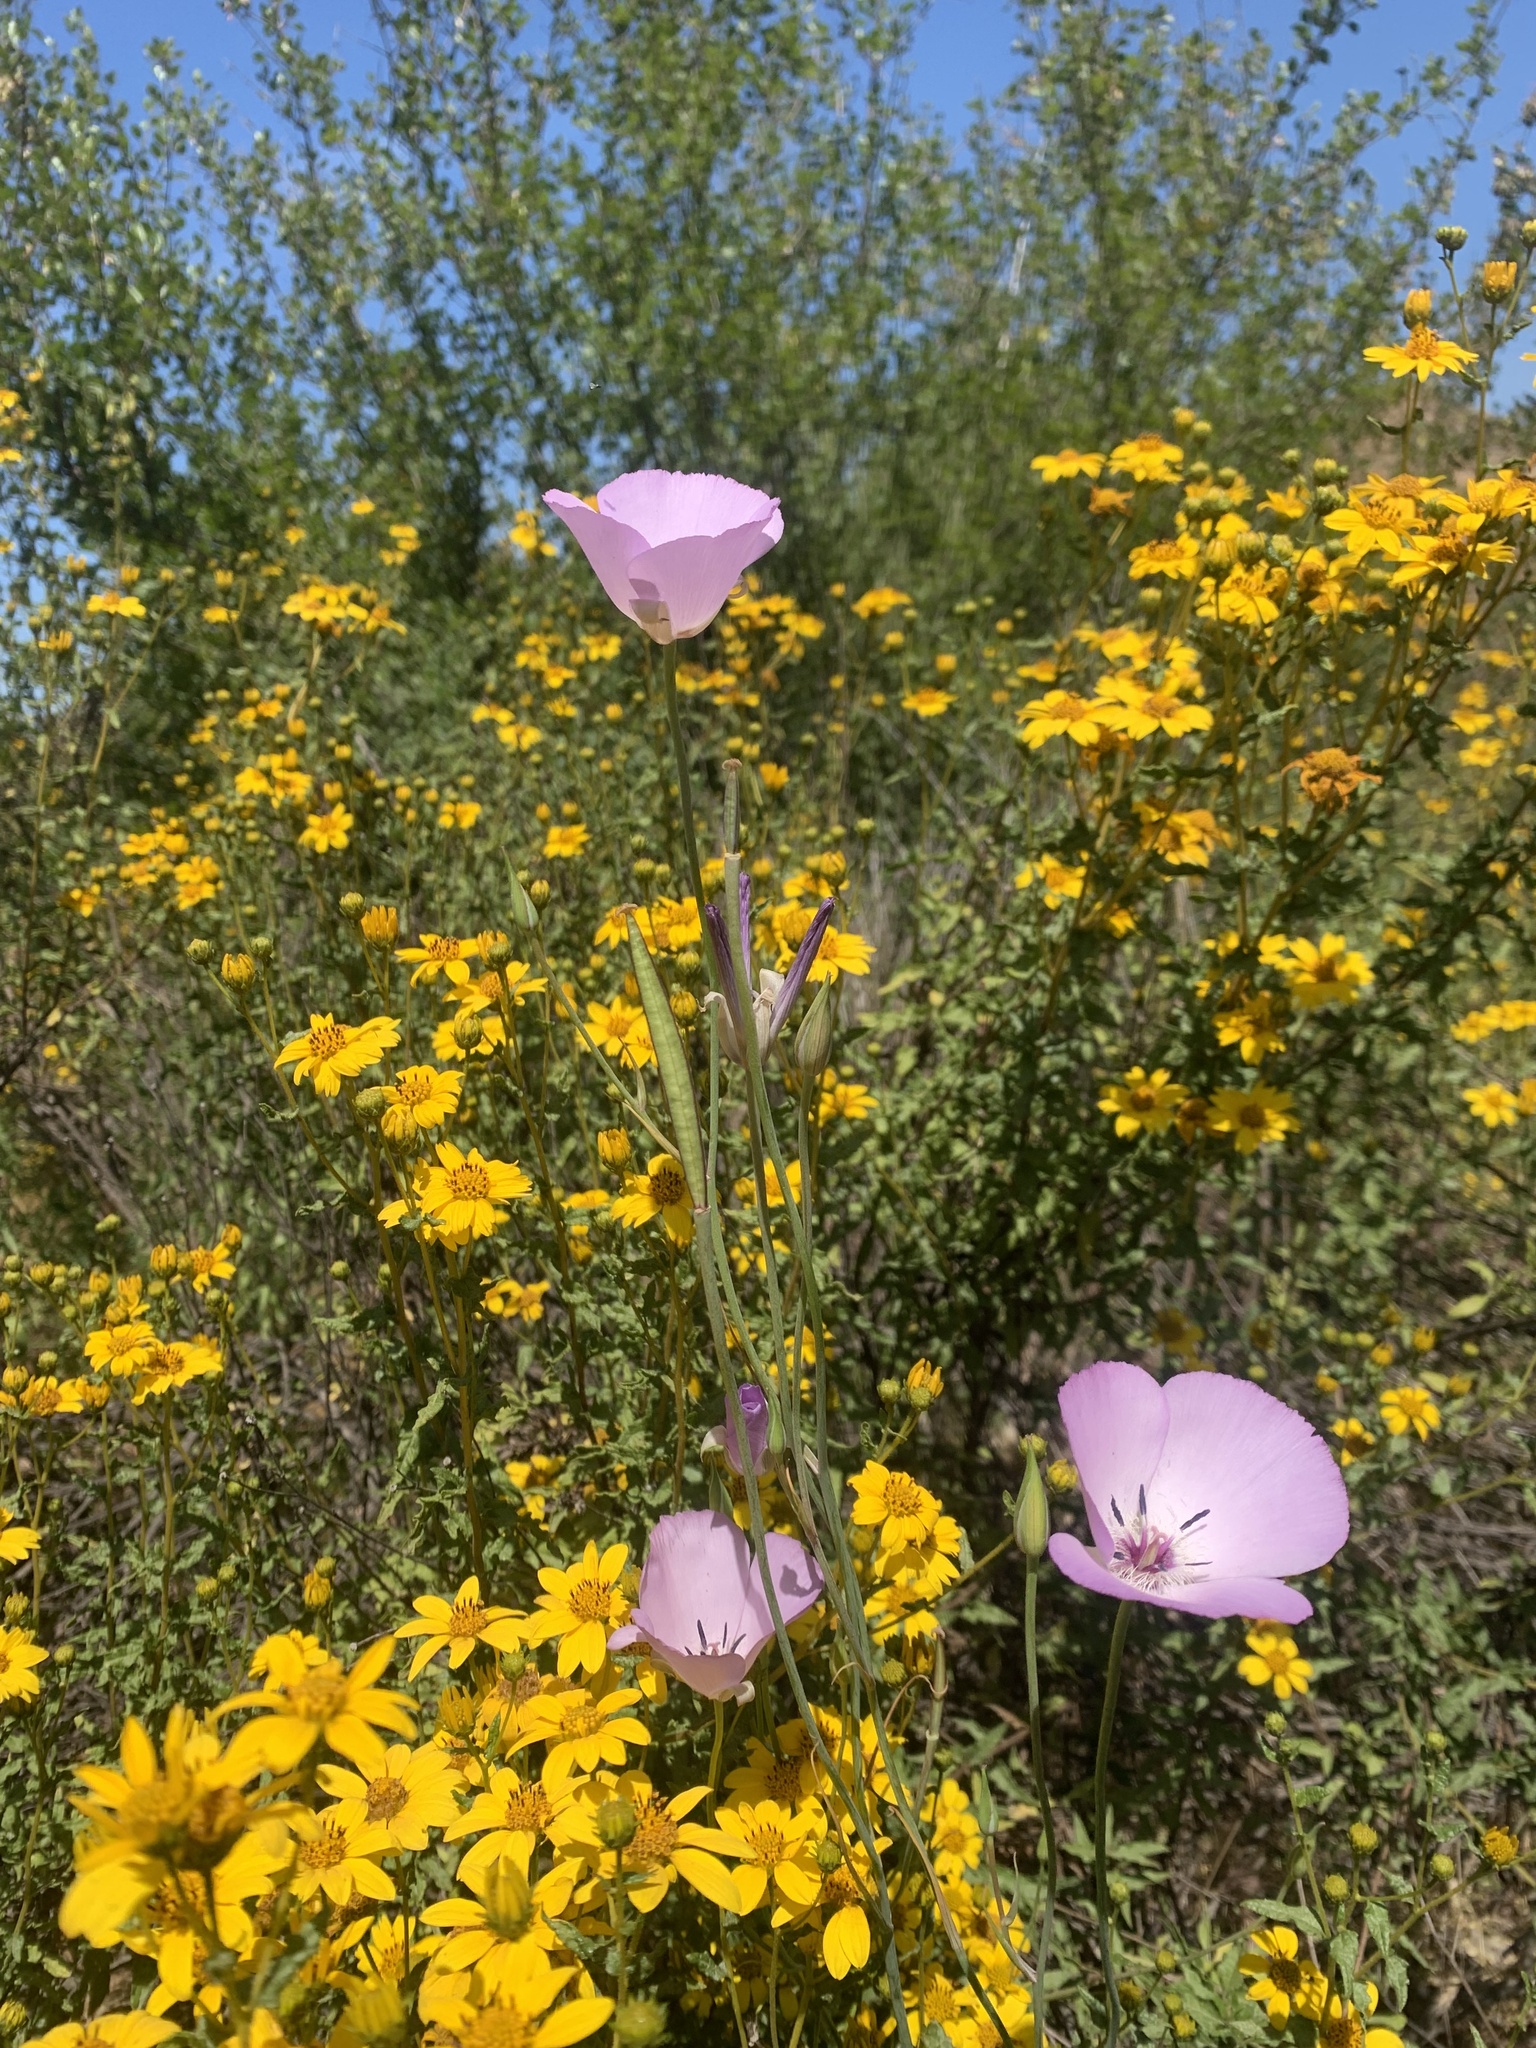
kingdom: Plantae
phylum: Tracheophyta
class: Liliopsida
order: Liliales
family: Liliaceae
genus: Calochortus
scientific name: Calochortus splendens
